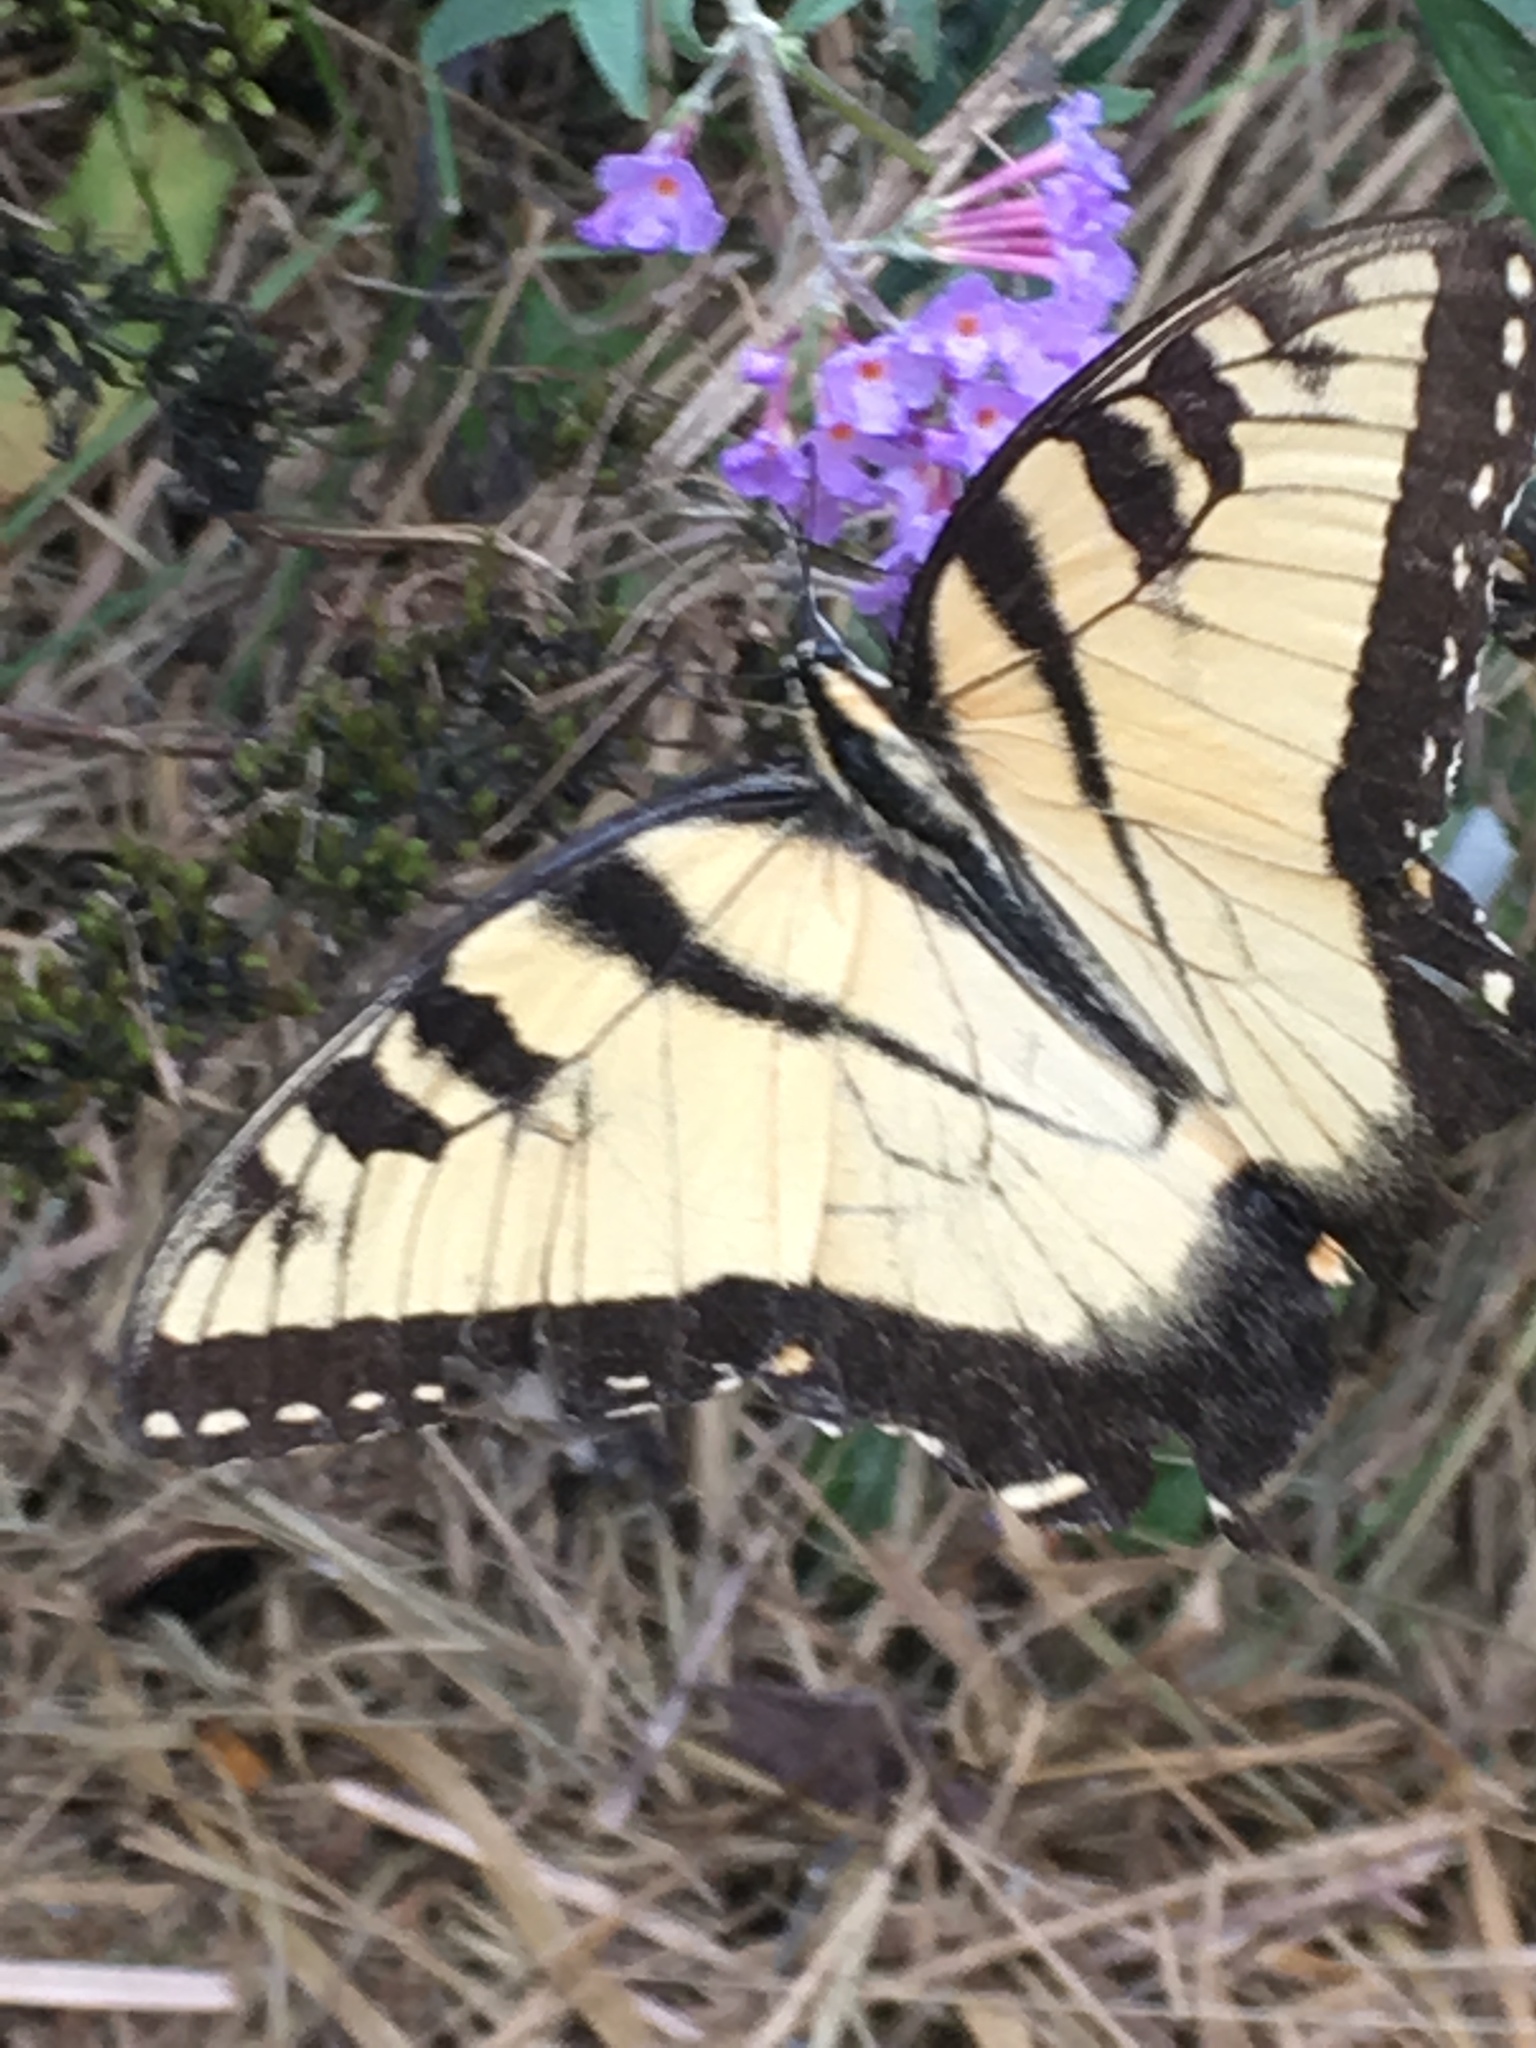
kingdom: Animalia
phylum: Arthropoda
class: Insecta
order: Lepidoptera
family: Papilionidae
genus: Papilio
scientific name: Papilio glaucus
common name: Tiger swallowtail
